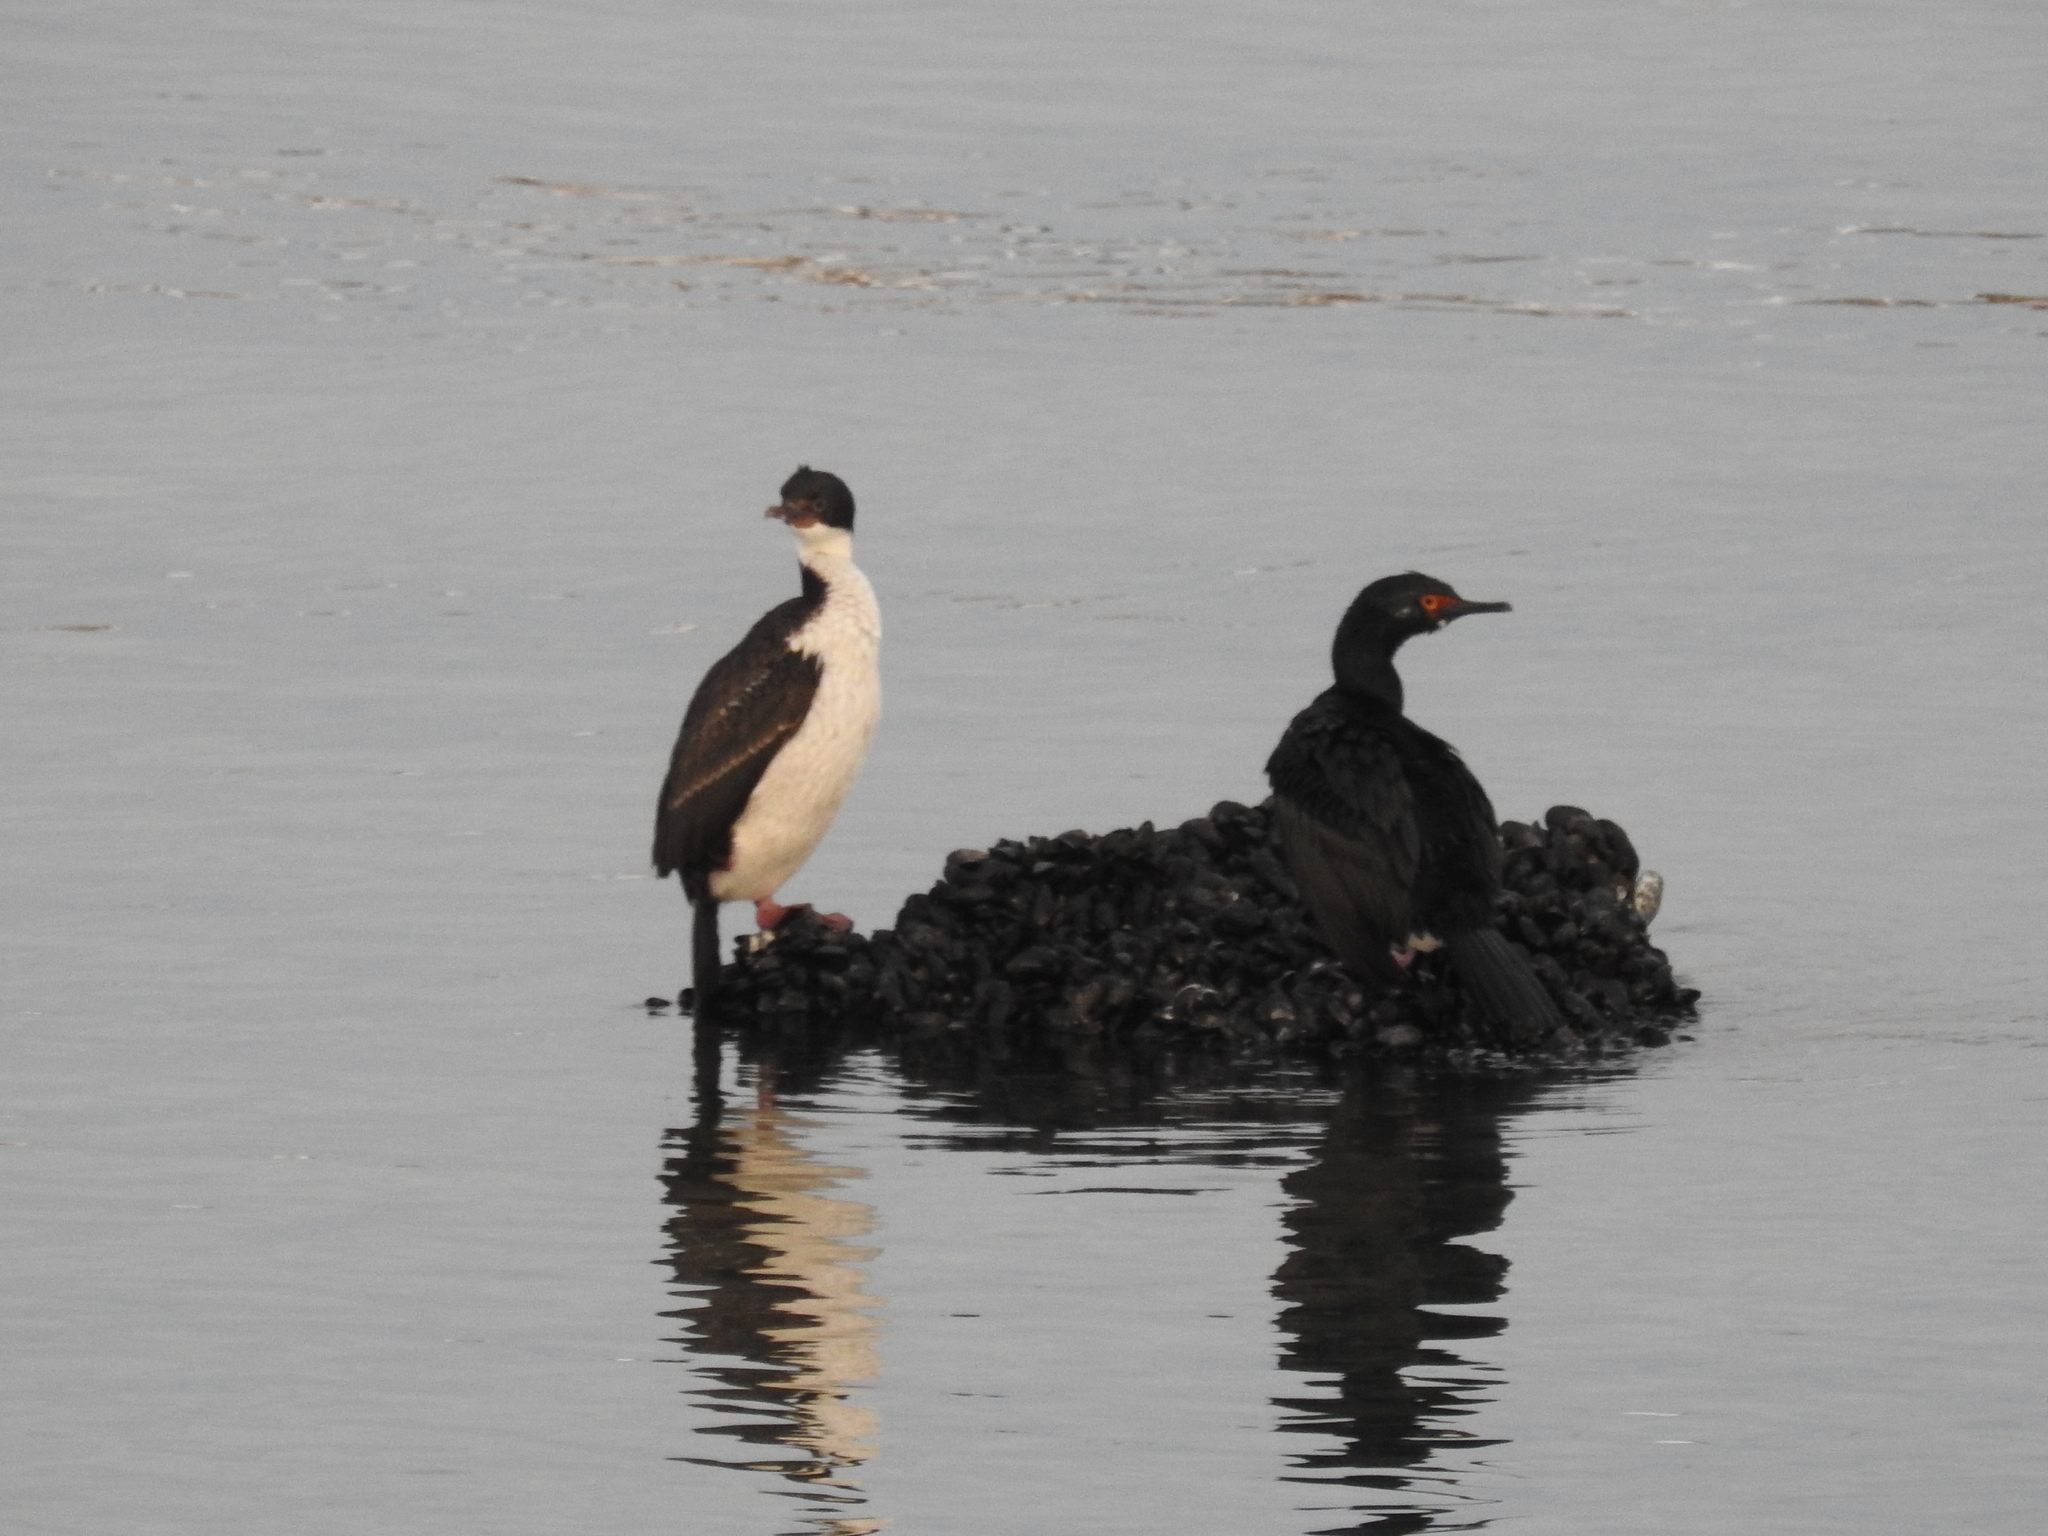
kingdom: Animalia
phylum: Chordata
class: Aves
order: Suliformes
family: Phalacrocoracidae
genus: Leucocarbo
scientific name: Leucocarbo albiventer
